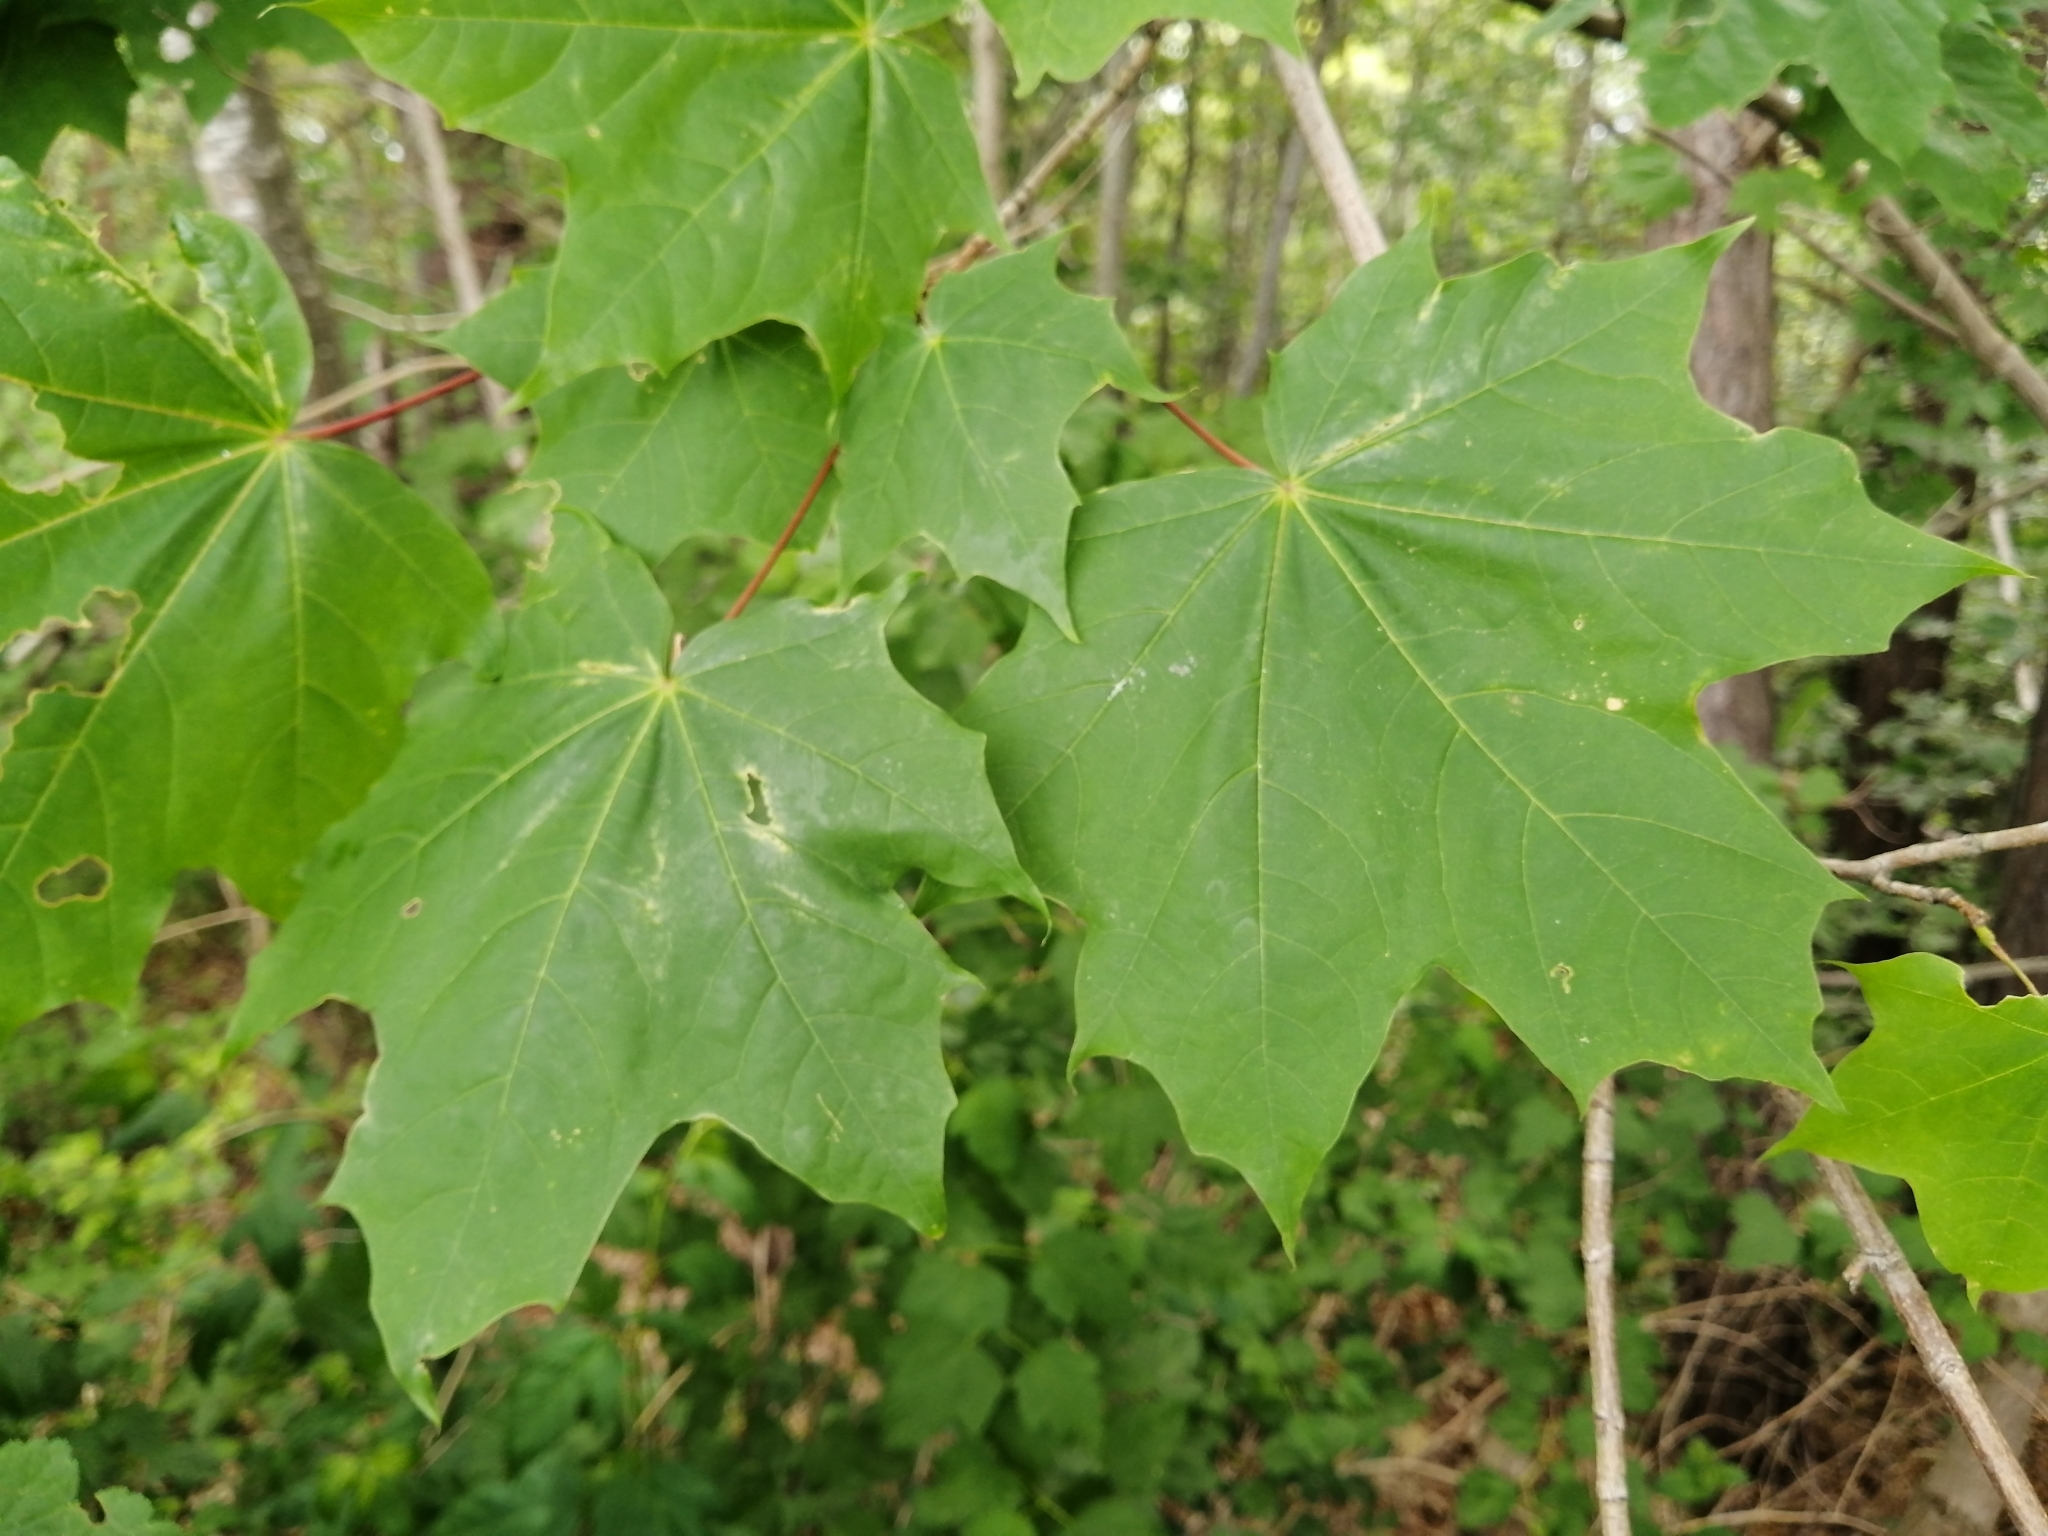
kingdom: Plantae
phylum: Tracheophyta
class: Magnoliopsida
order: Sapindales
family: Sapindaceae
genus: Acer
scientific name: Acer platanoides
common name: Norway maple
